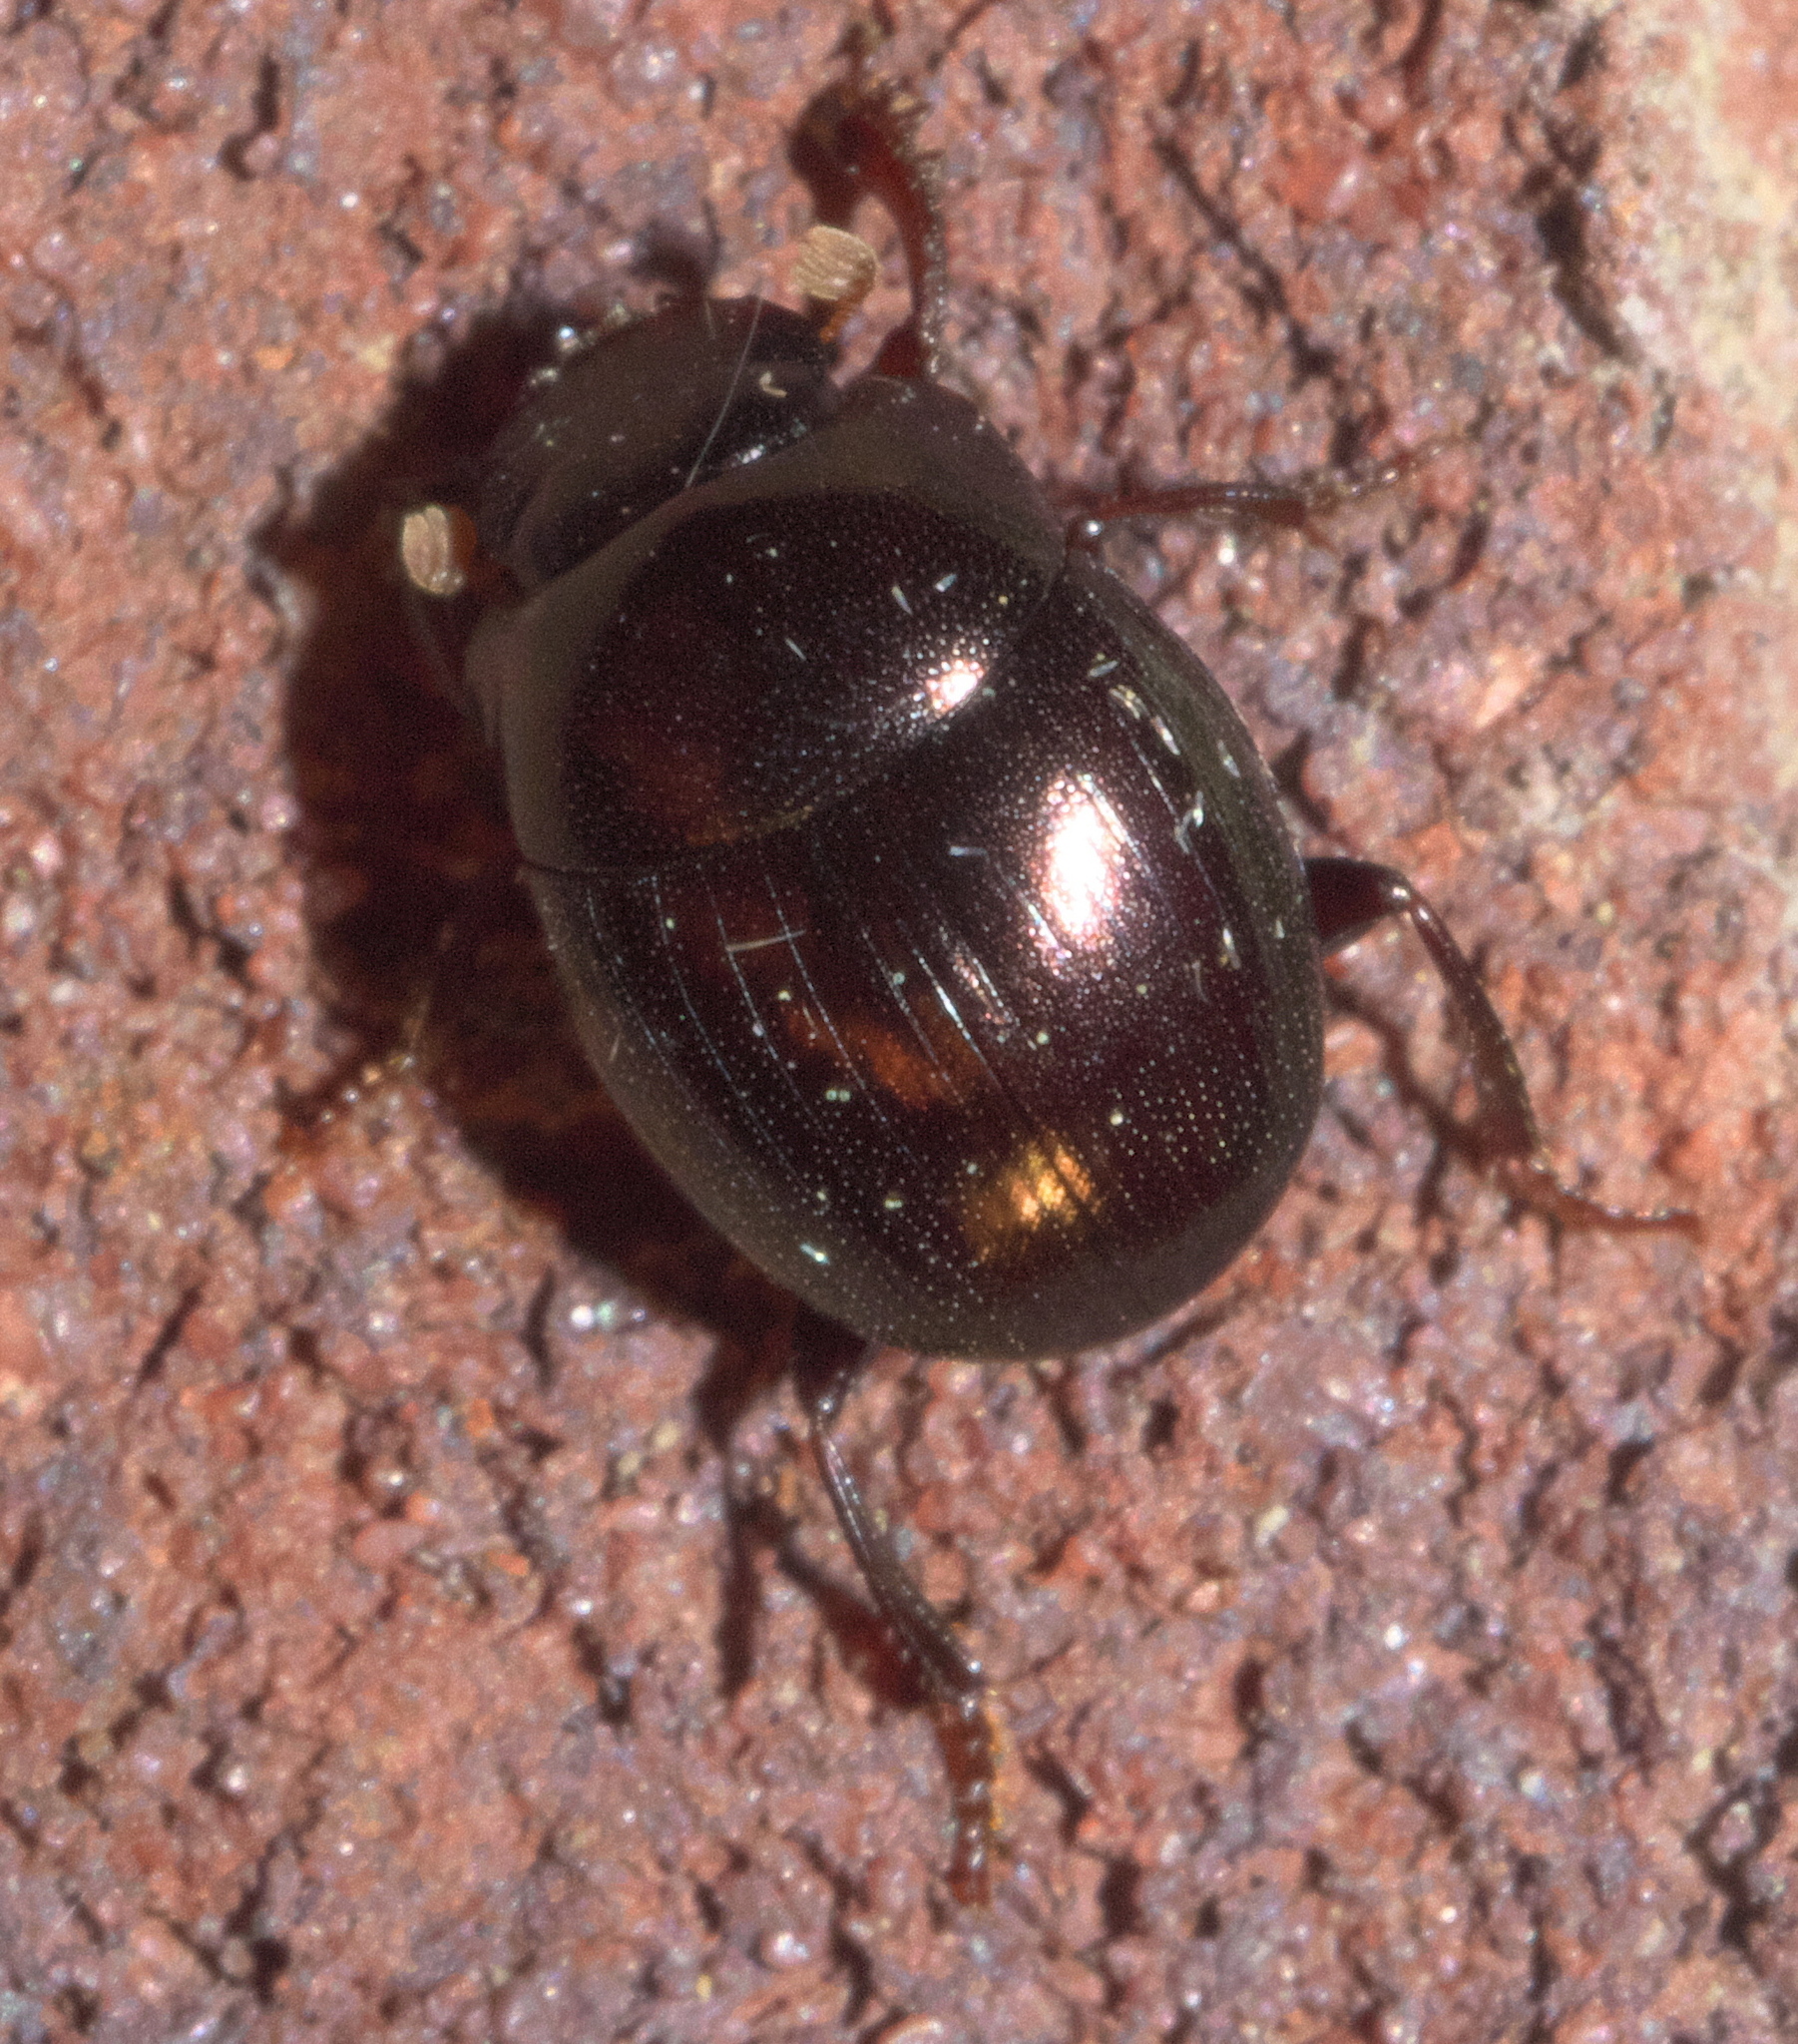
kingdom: Animalia
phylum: Arthropoda
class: Insecta
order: Coleoptera
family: Scarabaeidae
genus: Pseudocanthon
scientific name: Pseudocanthon perplexus
